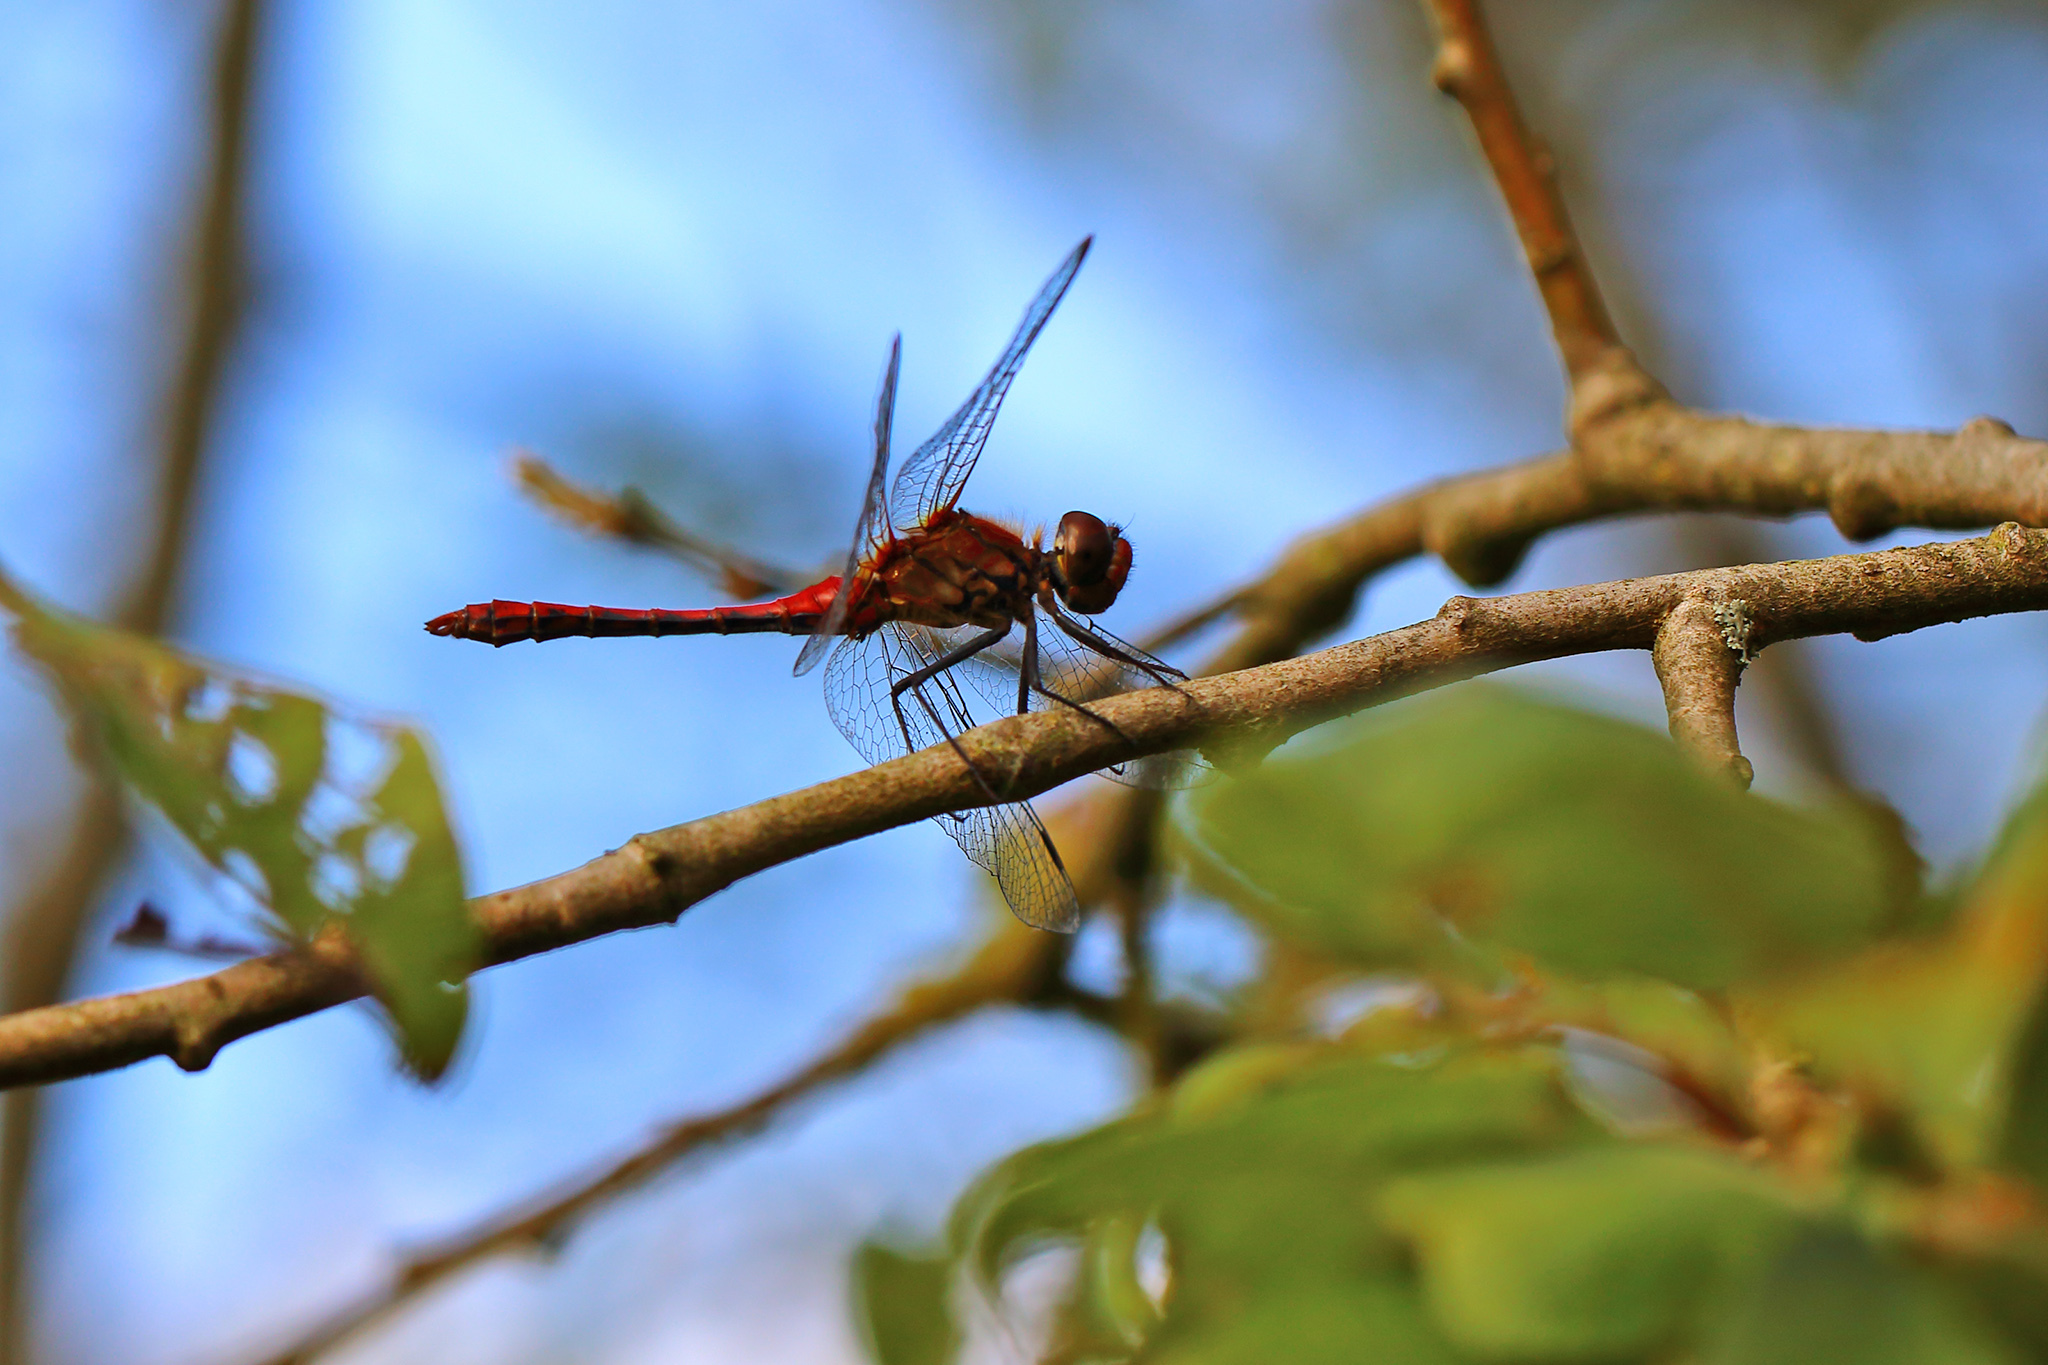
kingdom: Animalia
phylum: Arthropoda
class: Insecta
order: Odonata
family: Libellulidae
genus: Sympetrum
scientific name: Sympetrum sanguineum
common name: Ruddy darter
